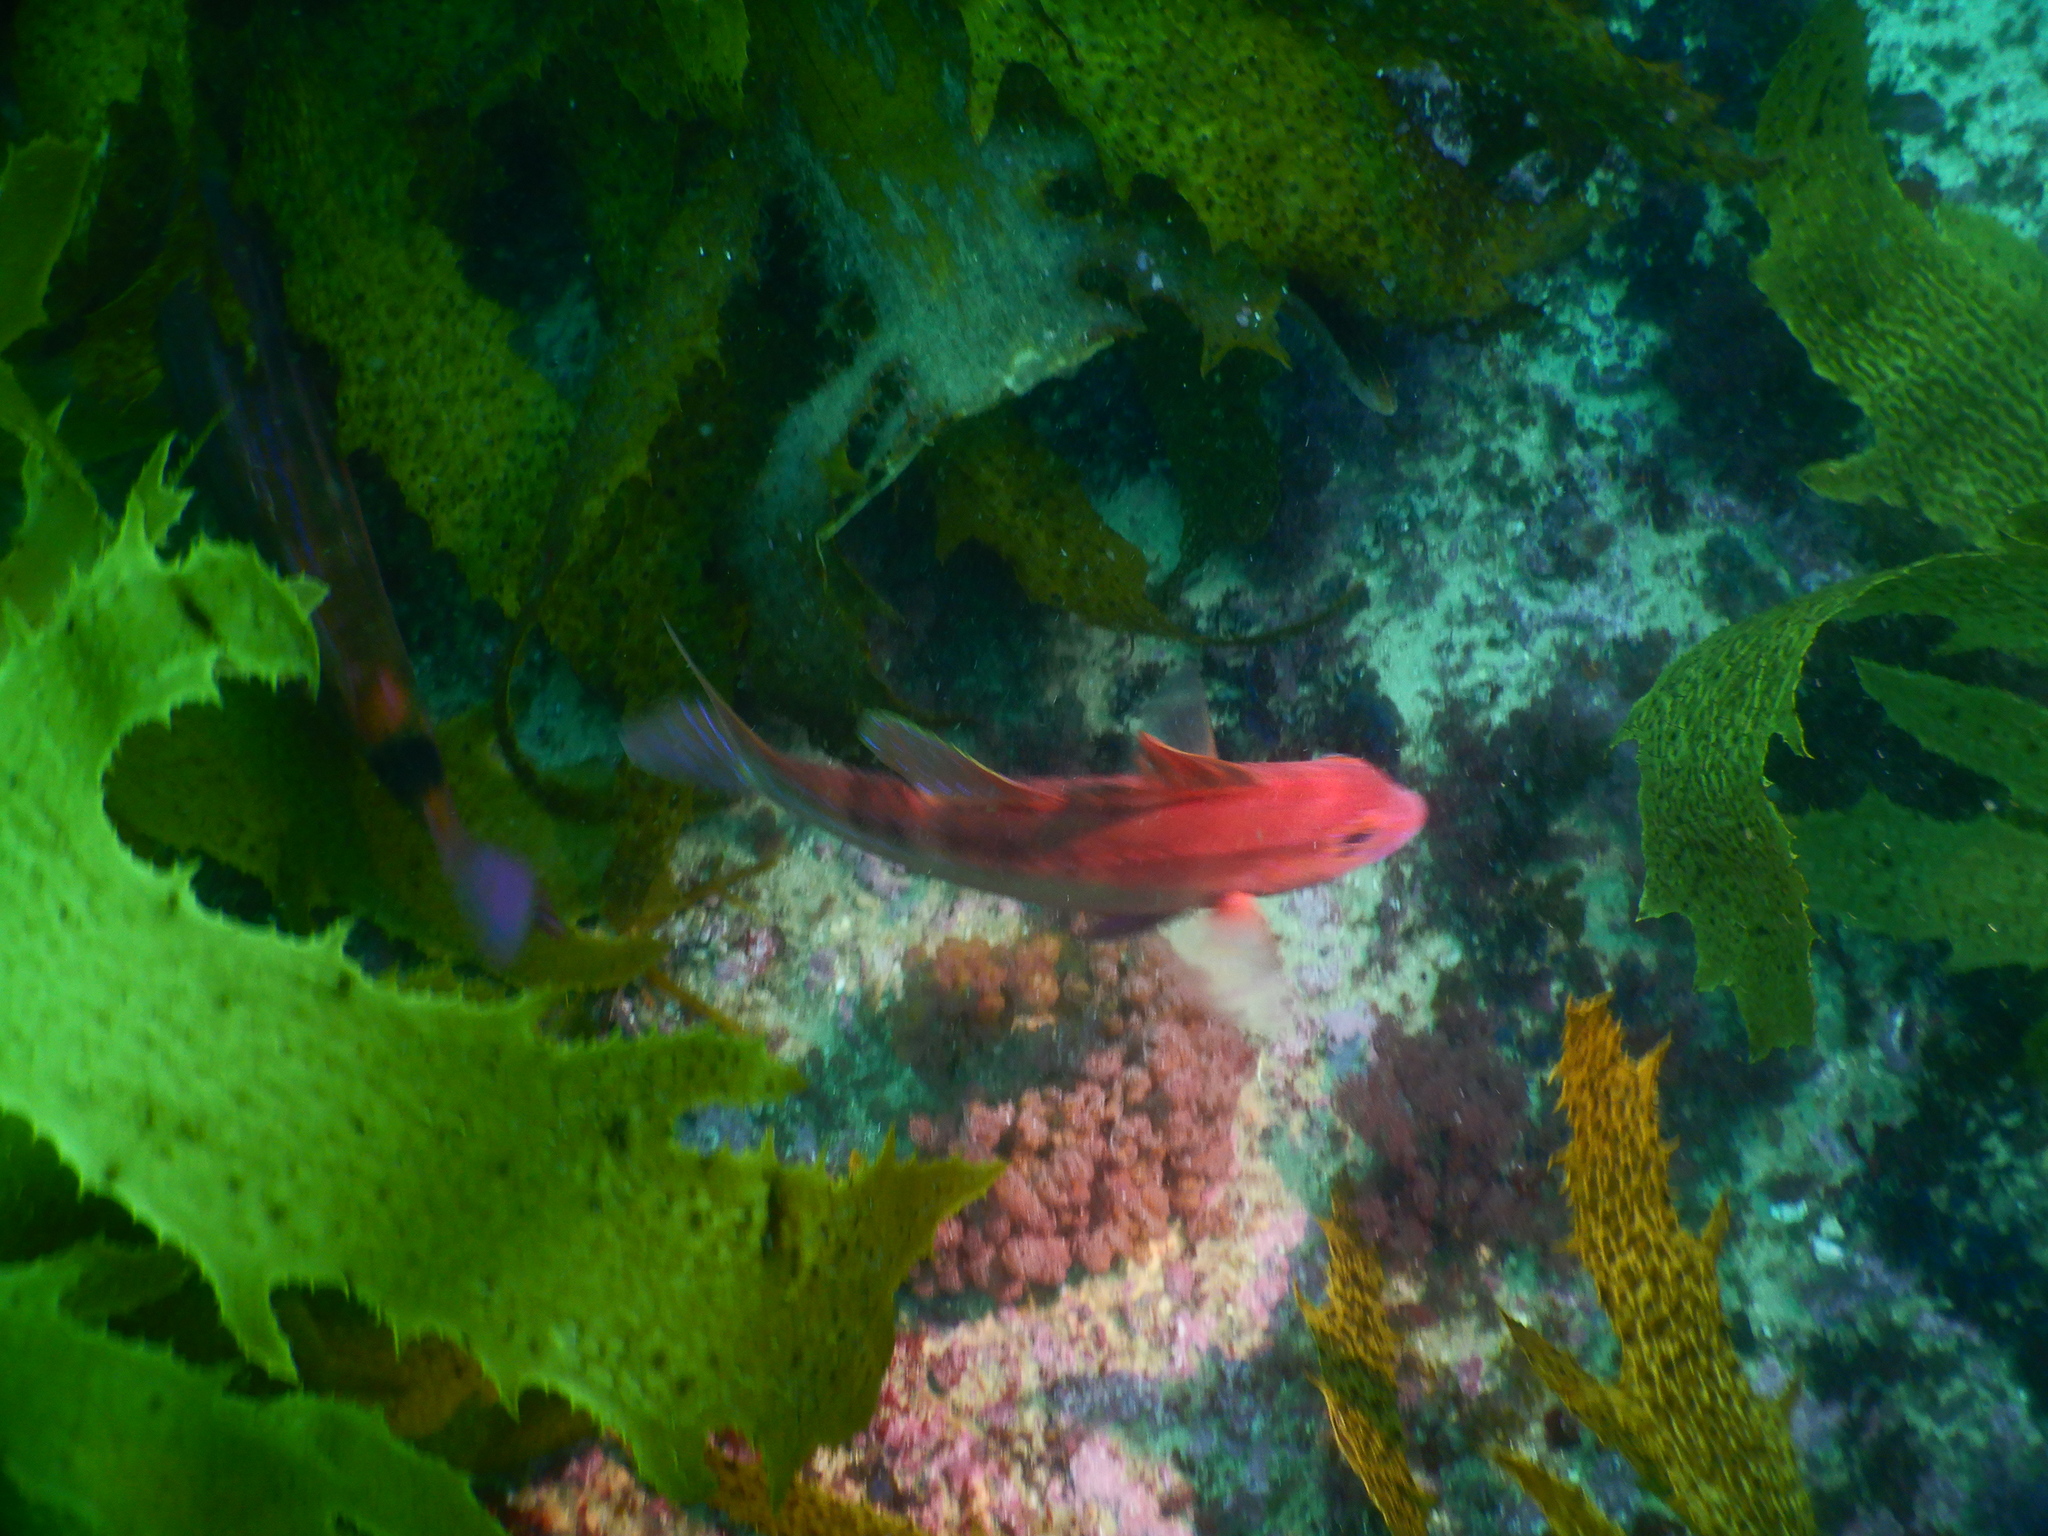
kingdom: Animalia
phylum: Chordata
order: Perciformes
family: Mullidae
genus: Upeneichthys
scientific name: Upeneichthys lineatus
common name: Red mullet
